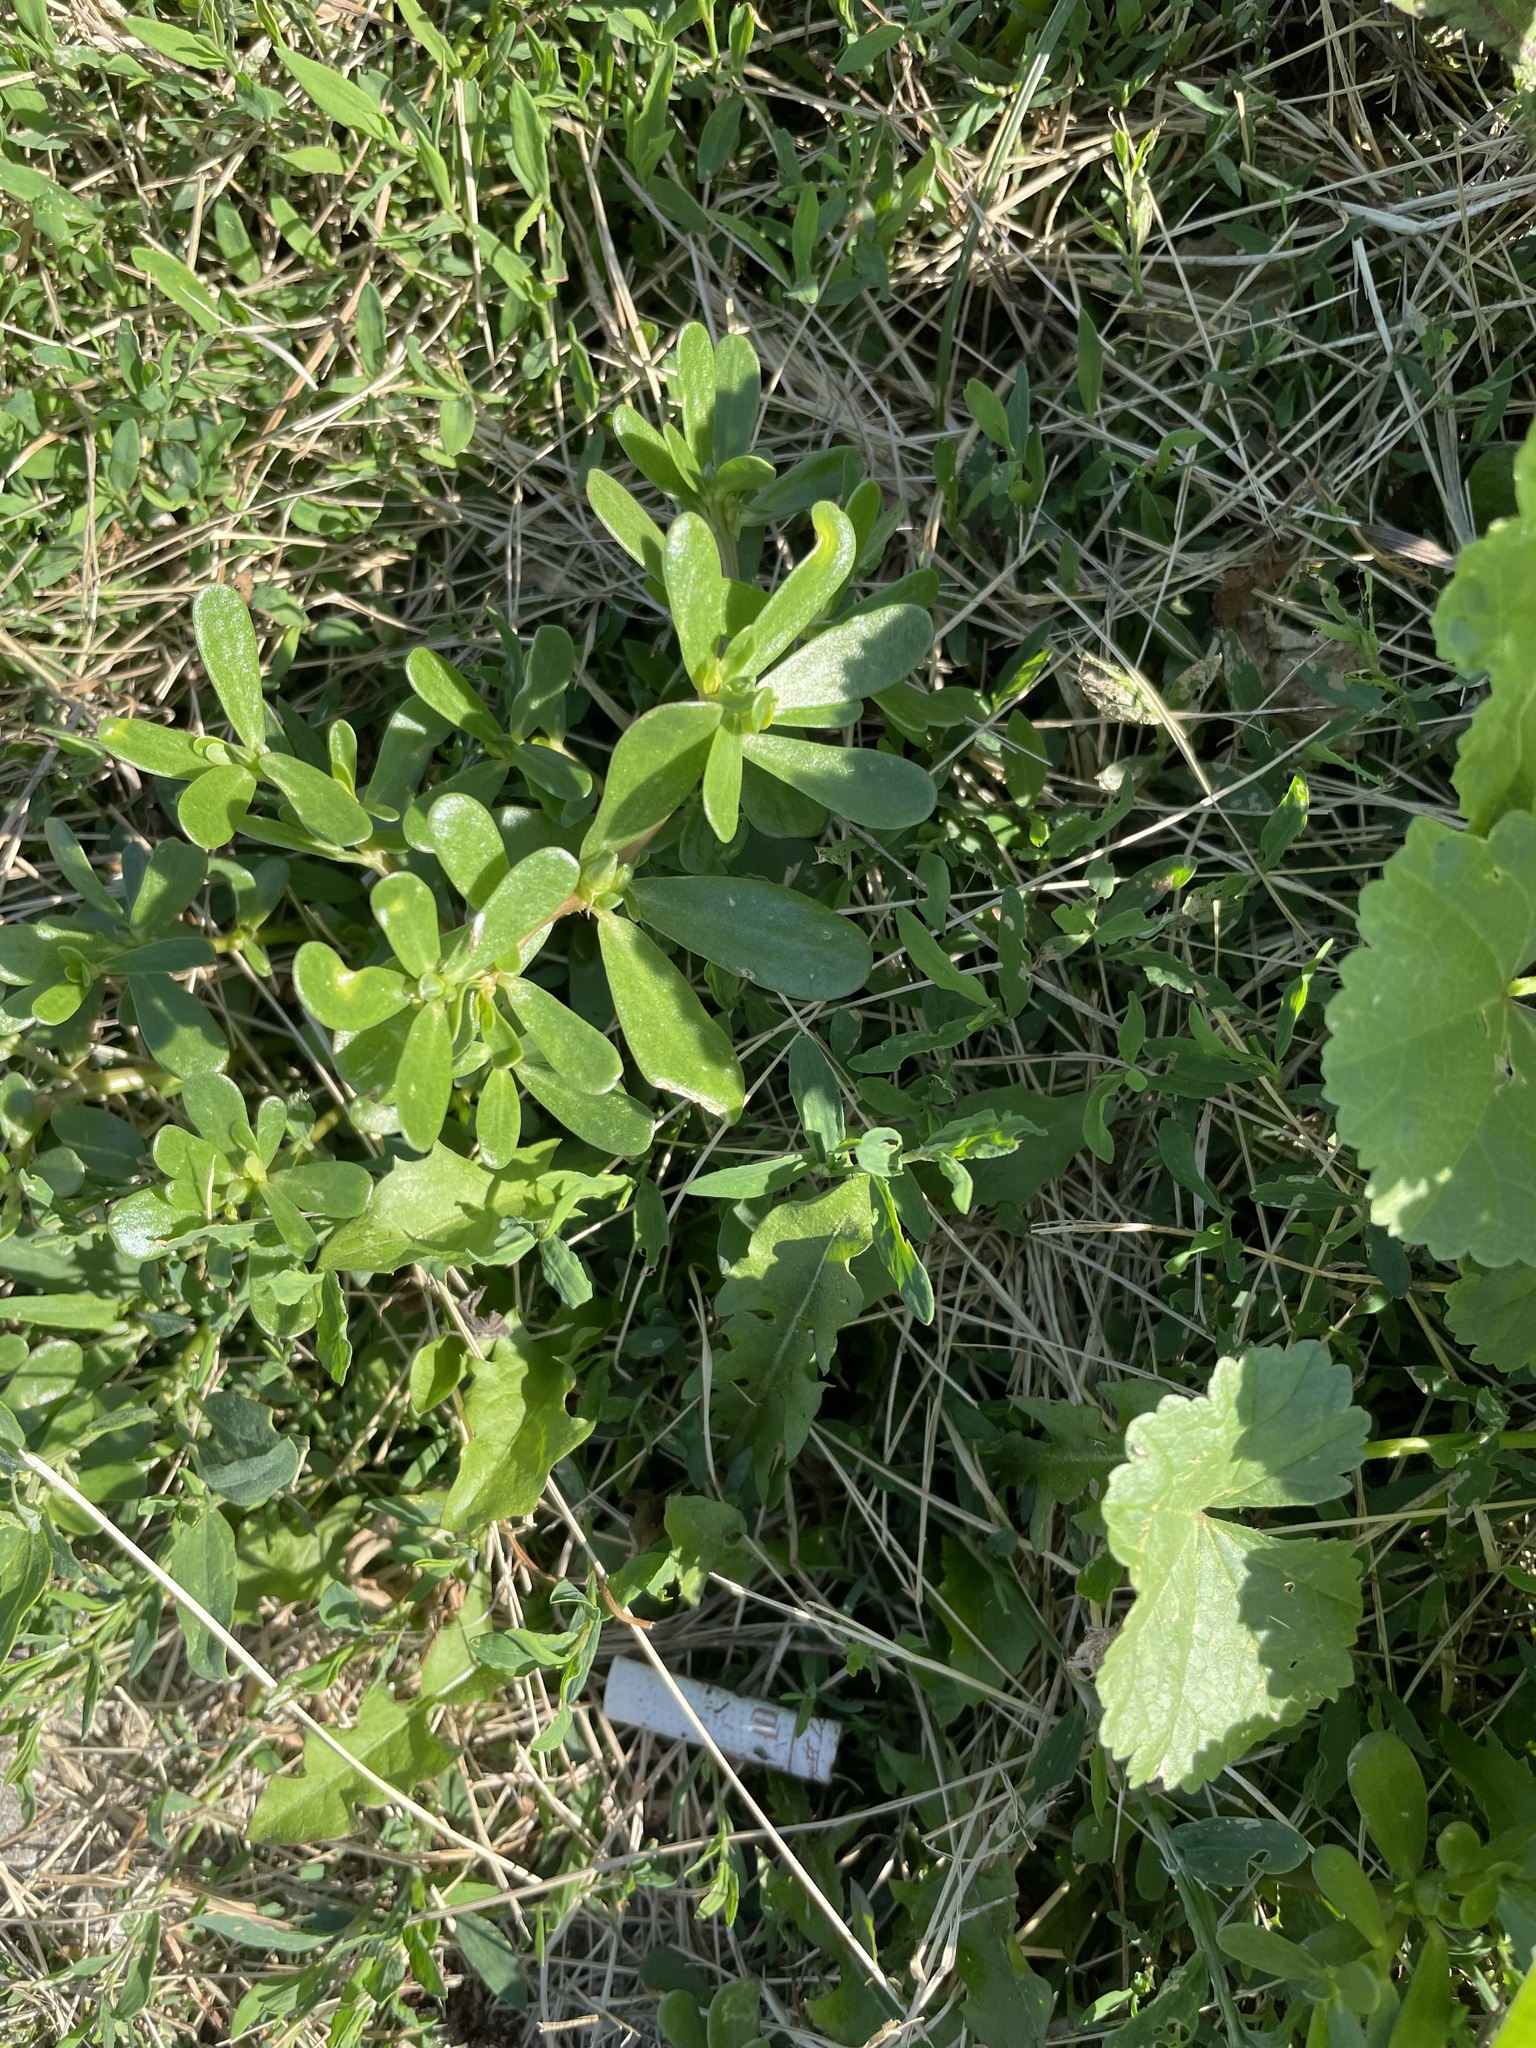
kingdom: Plantae
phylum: Tracheophyta
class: Magnoliopsida
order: Caryophyllales
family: Portulacaceae
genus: Portulaca
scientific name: Portulaca oleracea
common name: Common purslane
